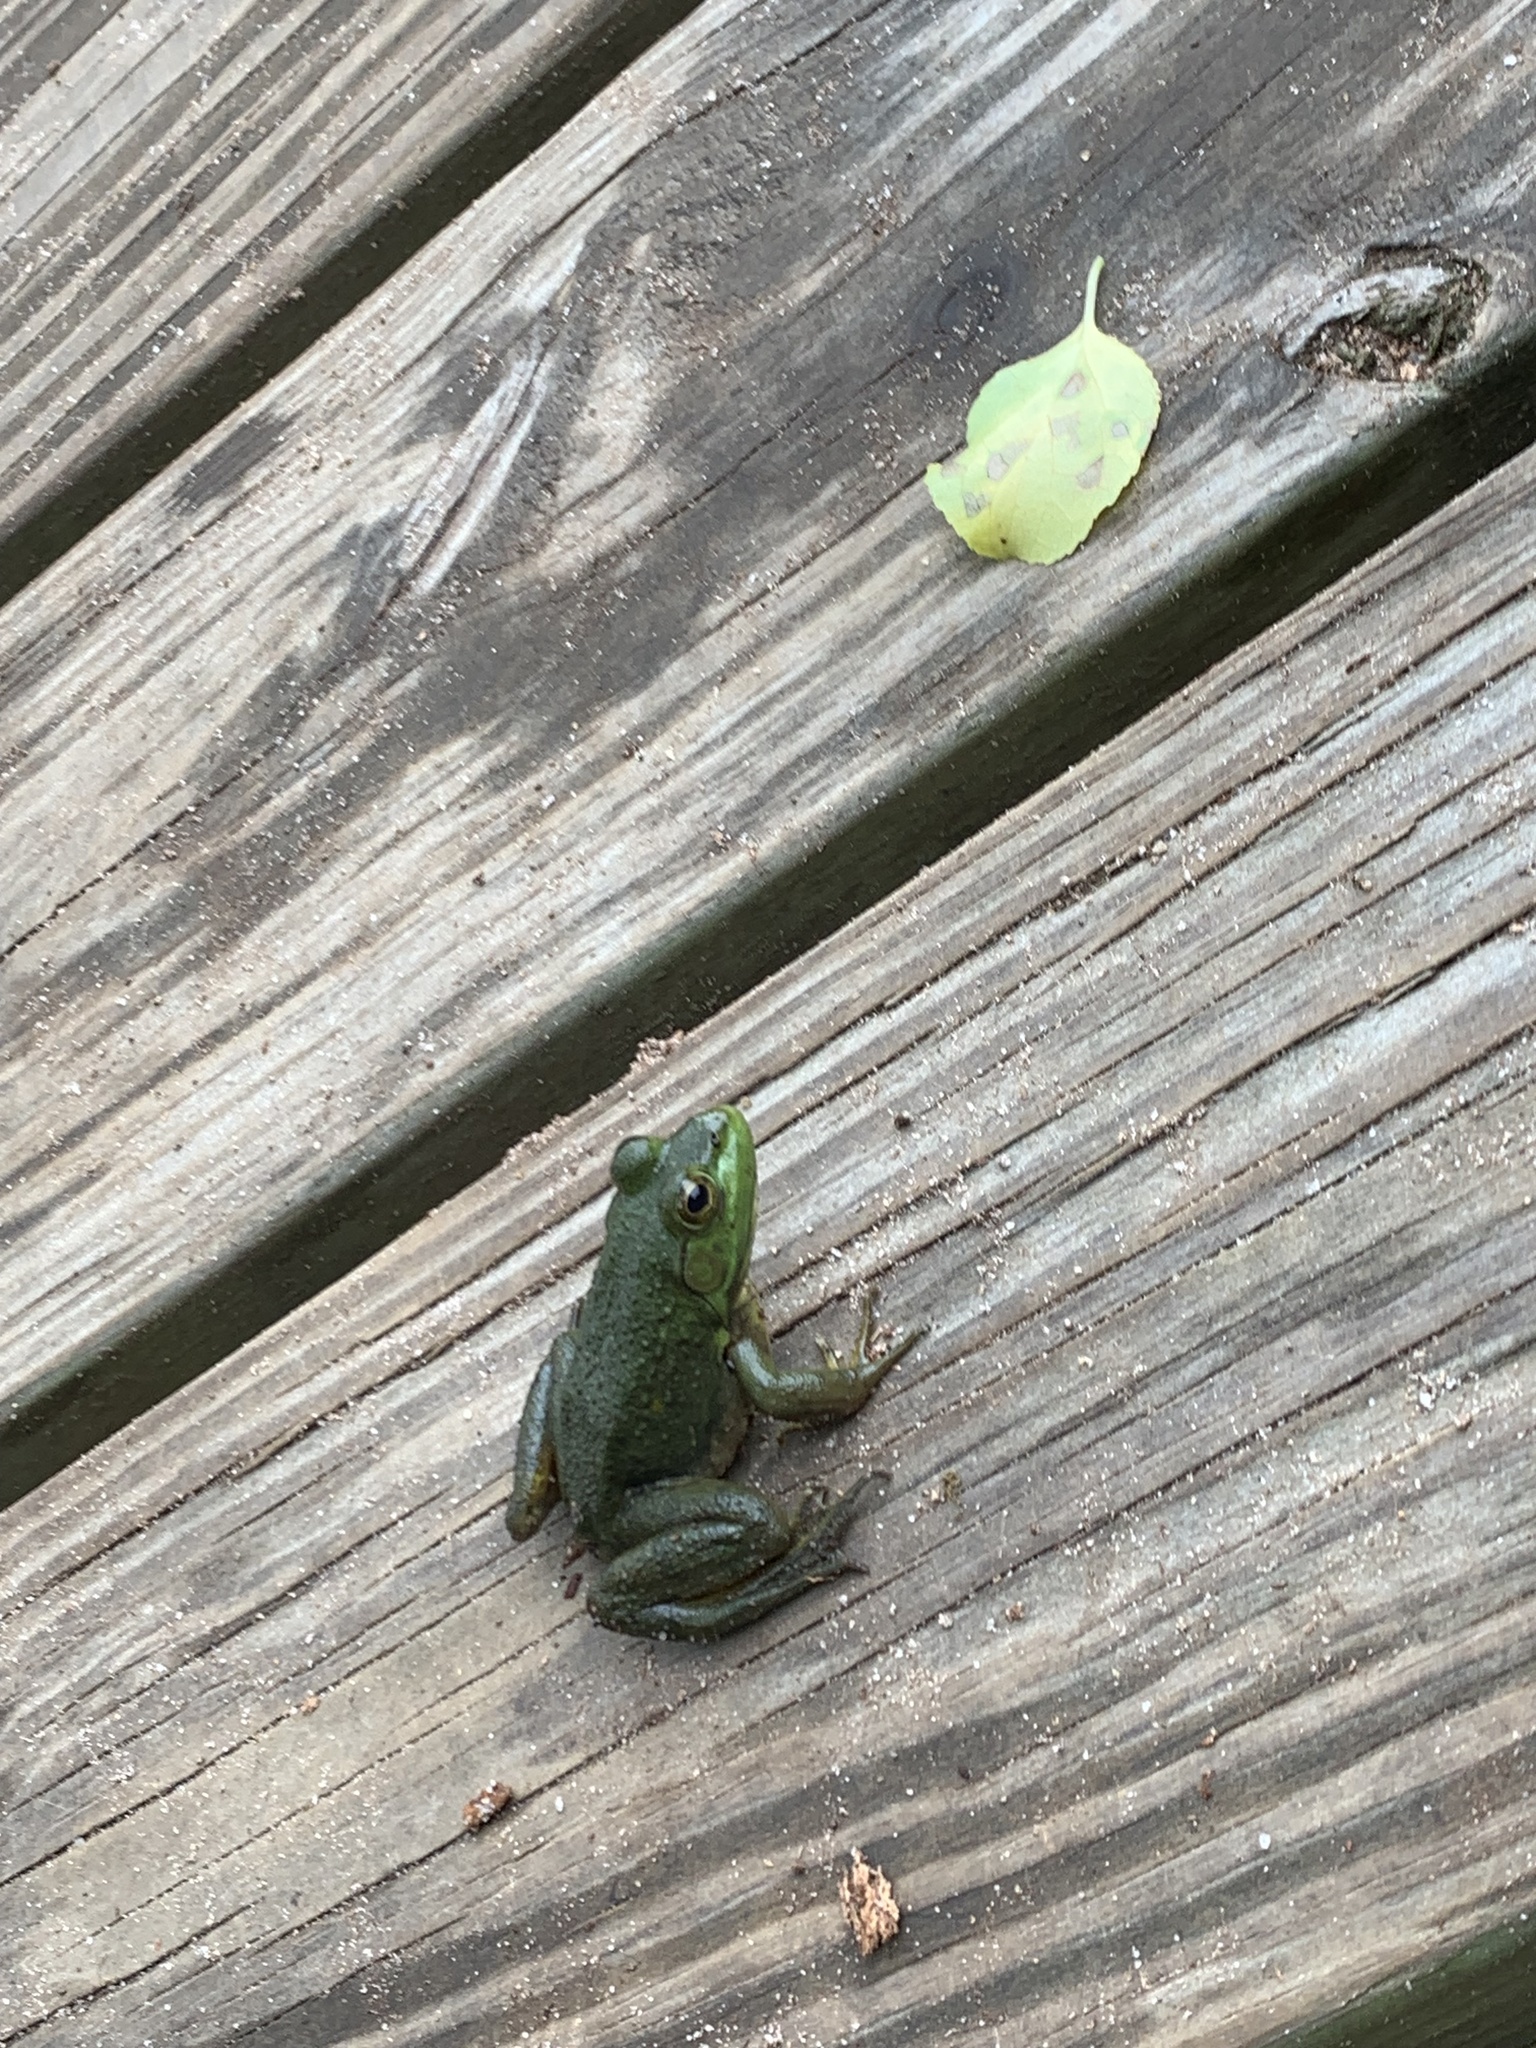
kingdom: Animalia
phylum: Chordata
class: Amphibia
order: Anura
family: Ranidae
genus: Lithobates
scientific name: Lithobates catesbeianus
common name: American bullfrog
